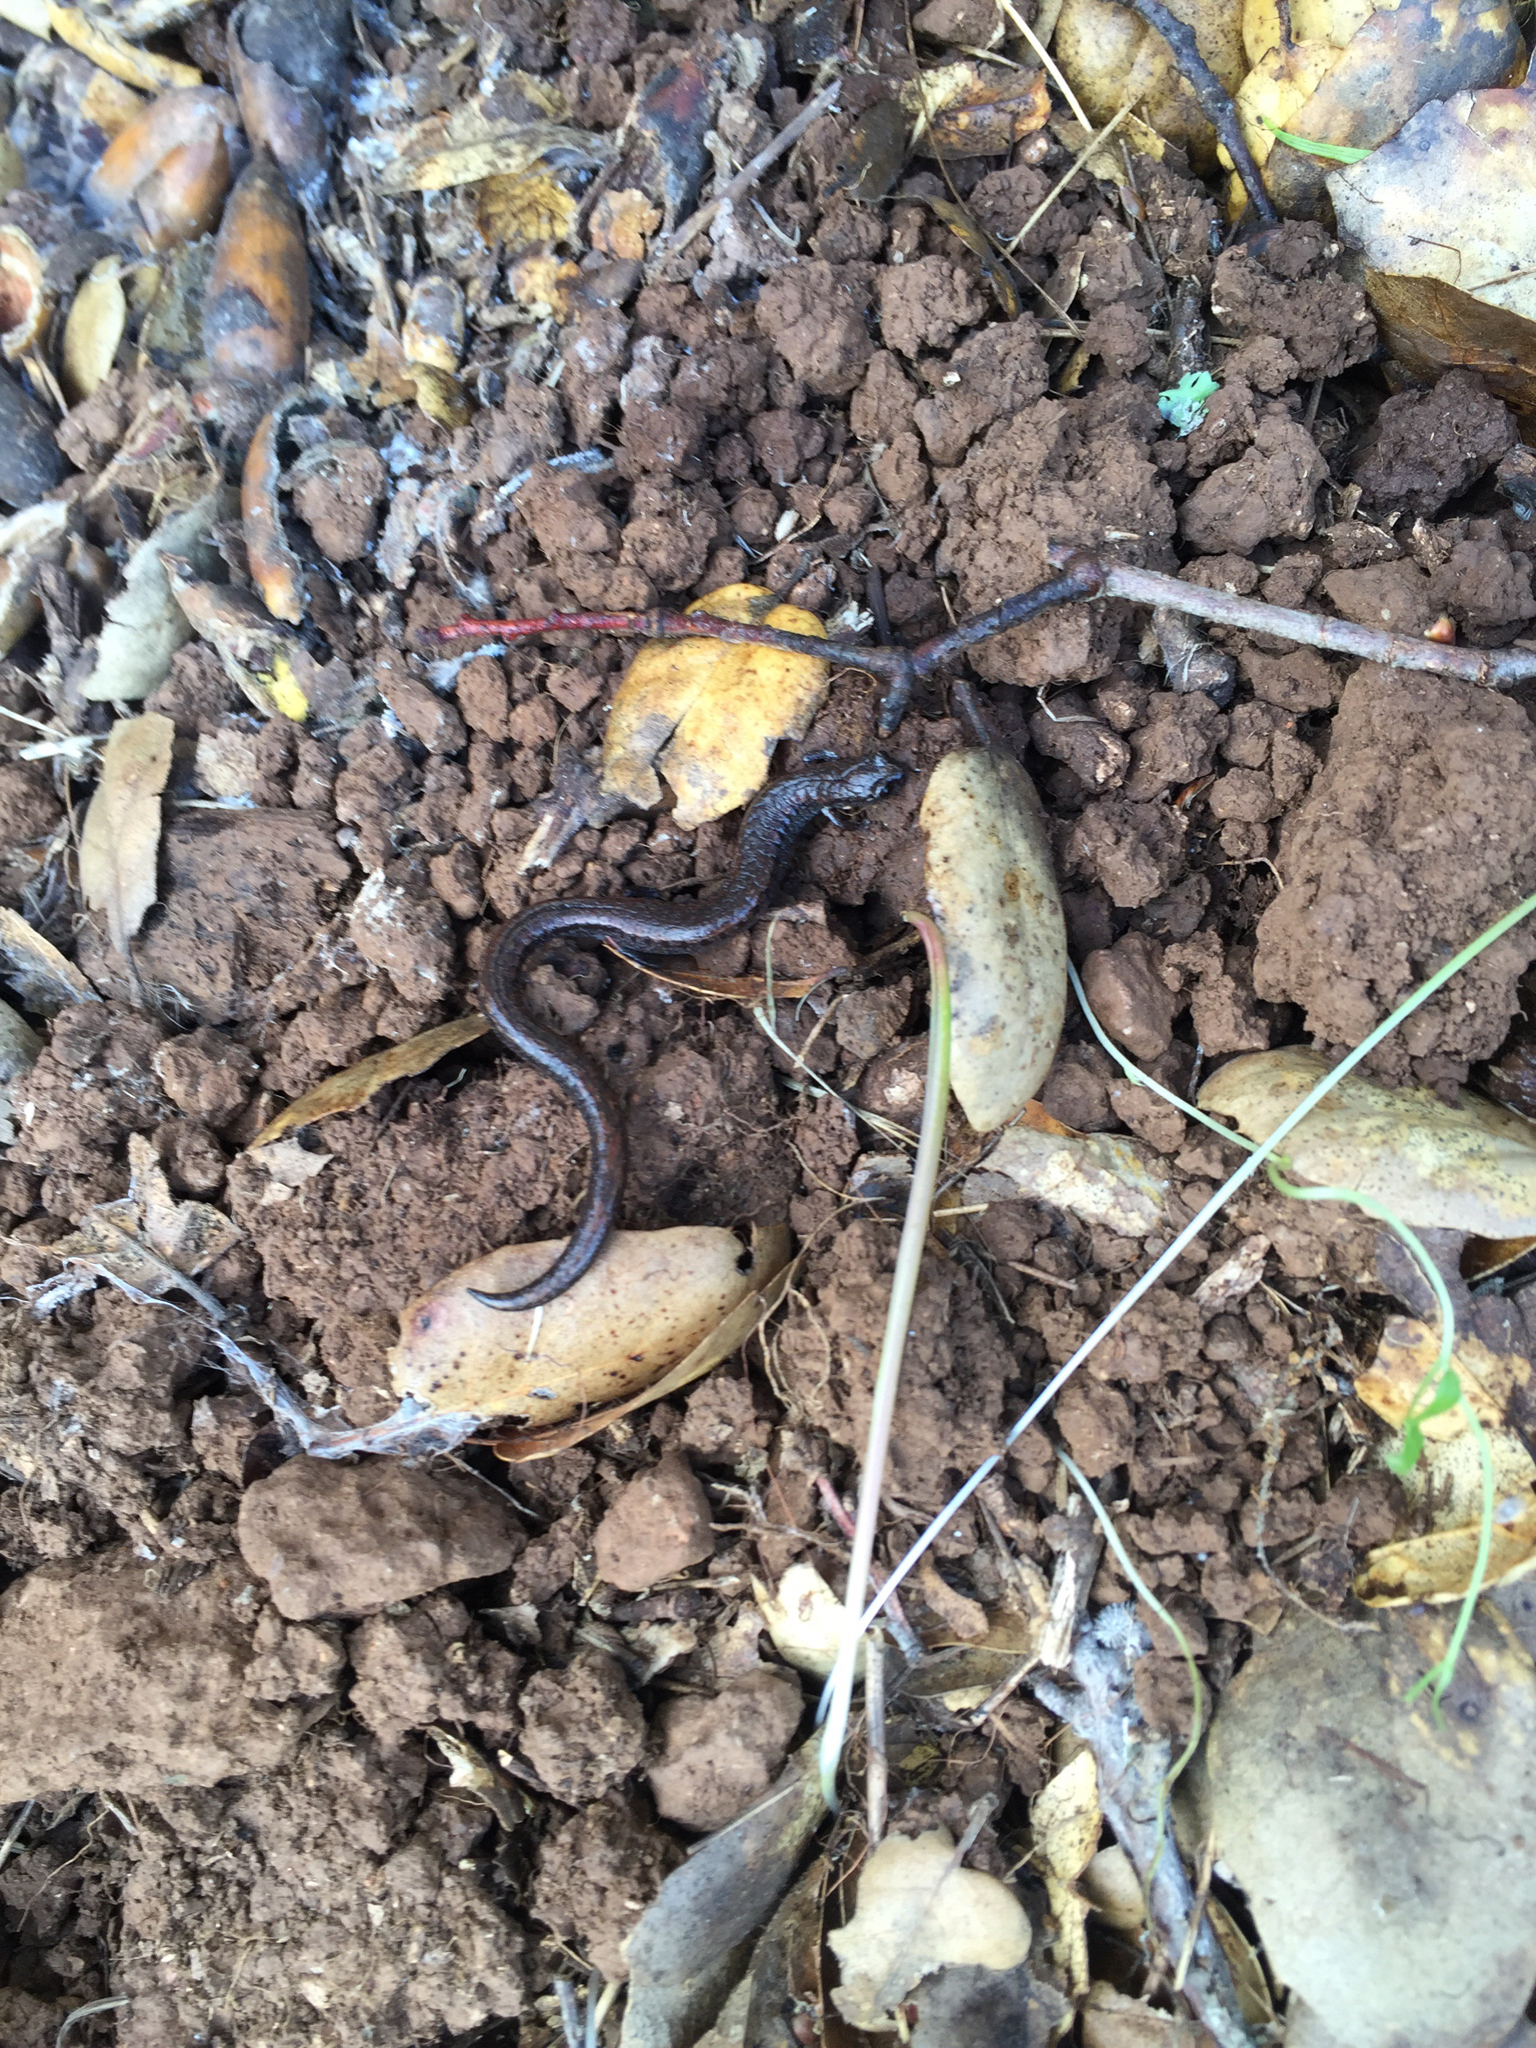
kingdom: Animalia
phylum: Chordata
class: Amphibia
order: Caudata
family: Plethodontidae
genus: Batrachoseps
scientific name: Batrachoseps attenuatus
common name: California slender salamander
